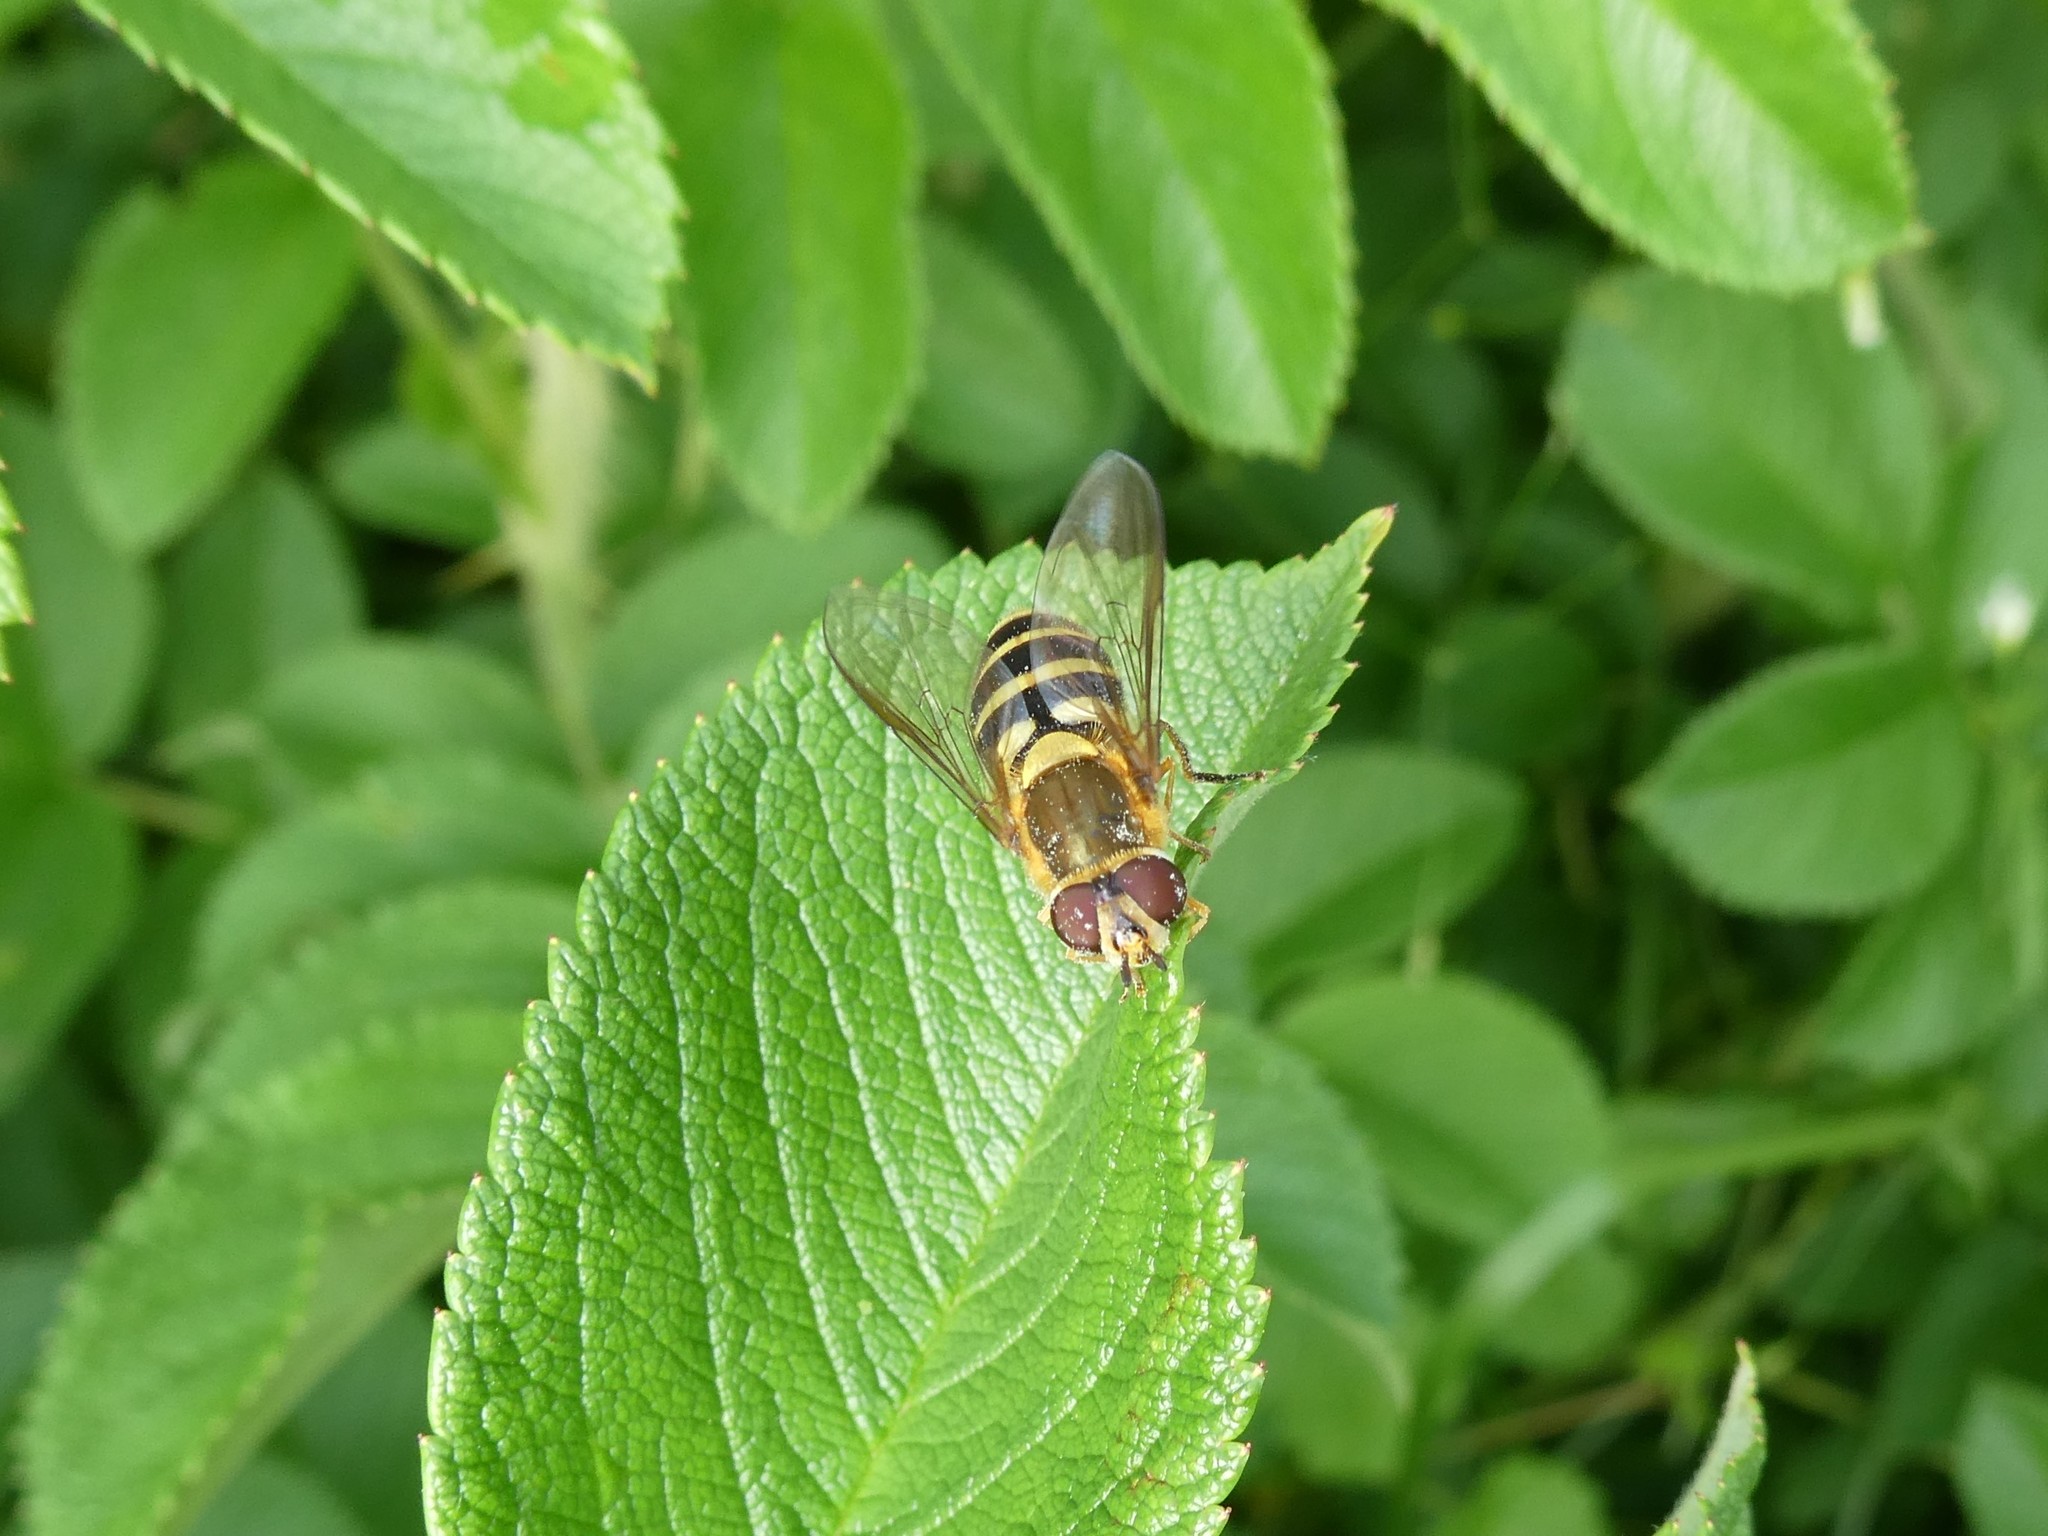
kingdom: Animalia
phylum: Arthropoda
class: Insecta
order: Diptera
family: Syrphidae
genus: Syrphus
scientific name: Syrphus
